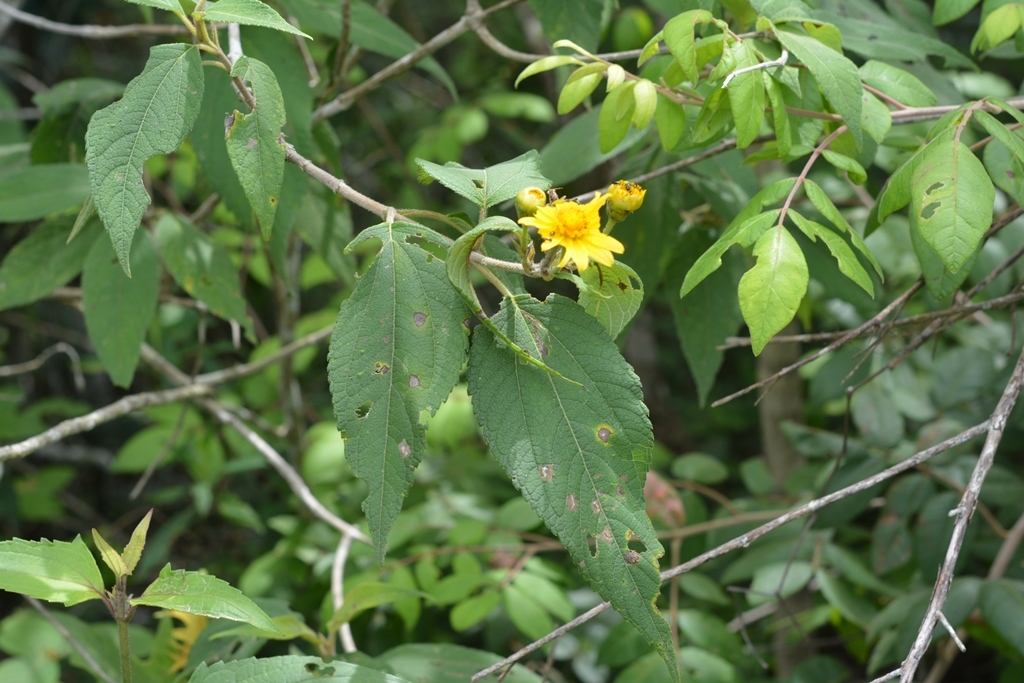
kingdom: Plantae
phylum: Tracheophyta
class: Magnoliopsida
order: Asterales
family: Asteraceae
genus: Lasianthaea
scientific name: Lasianthaea fruticosa
